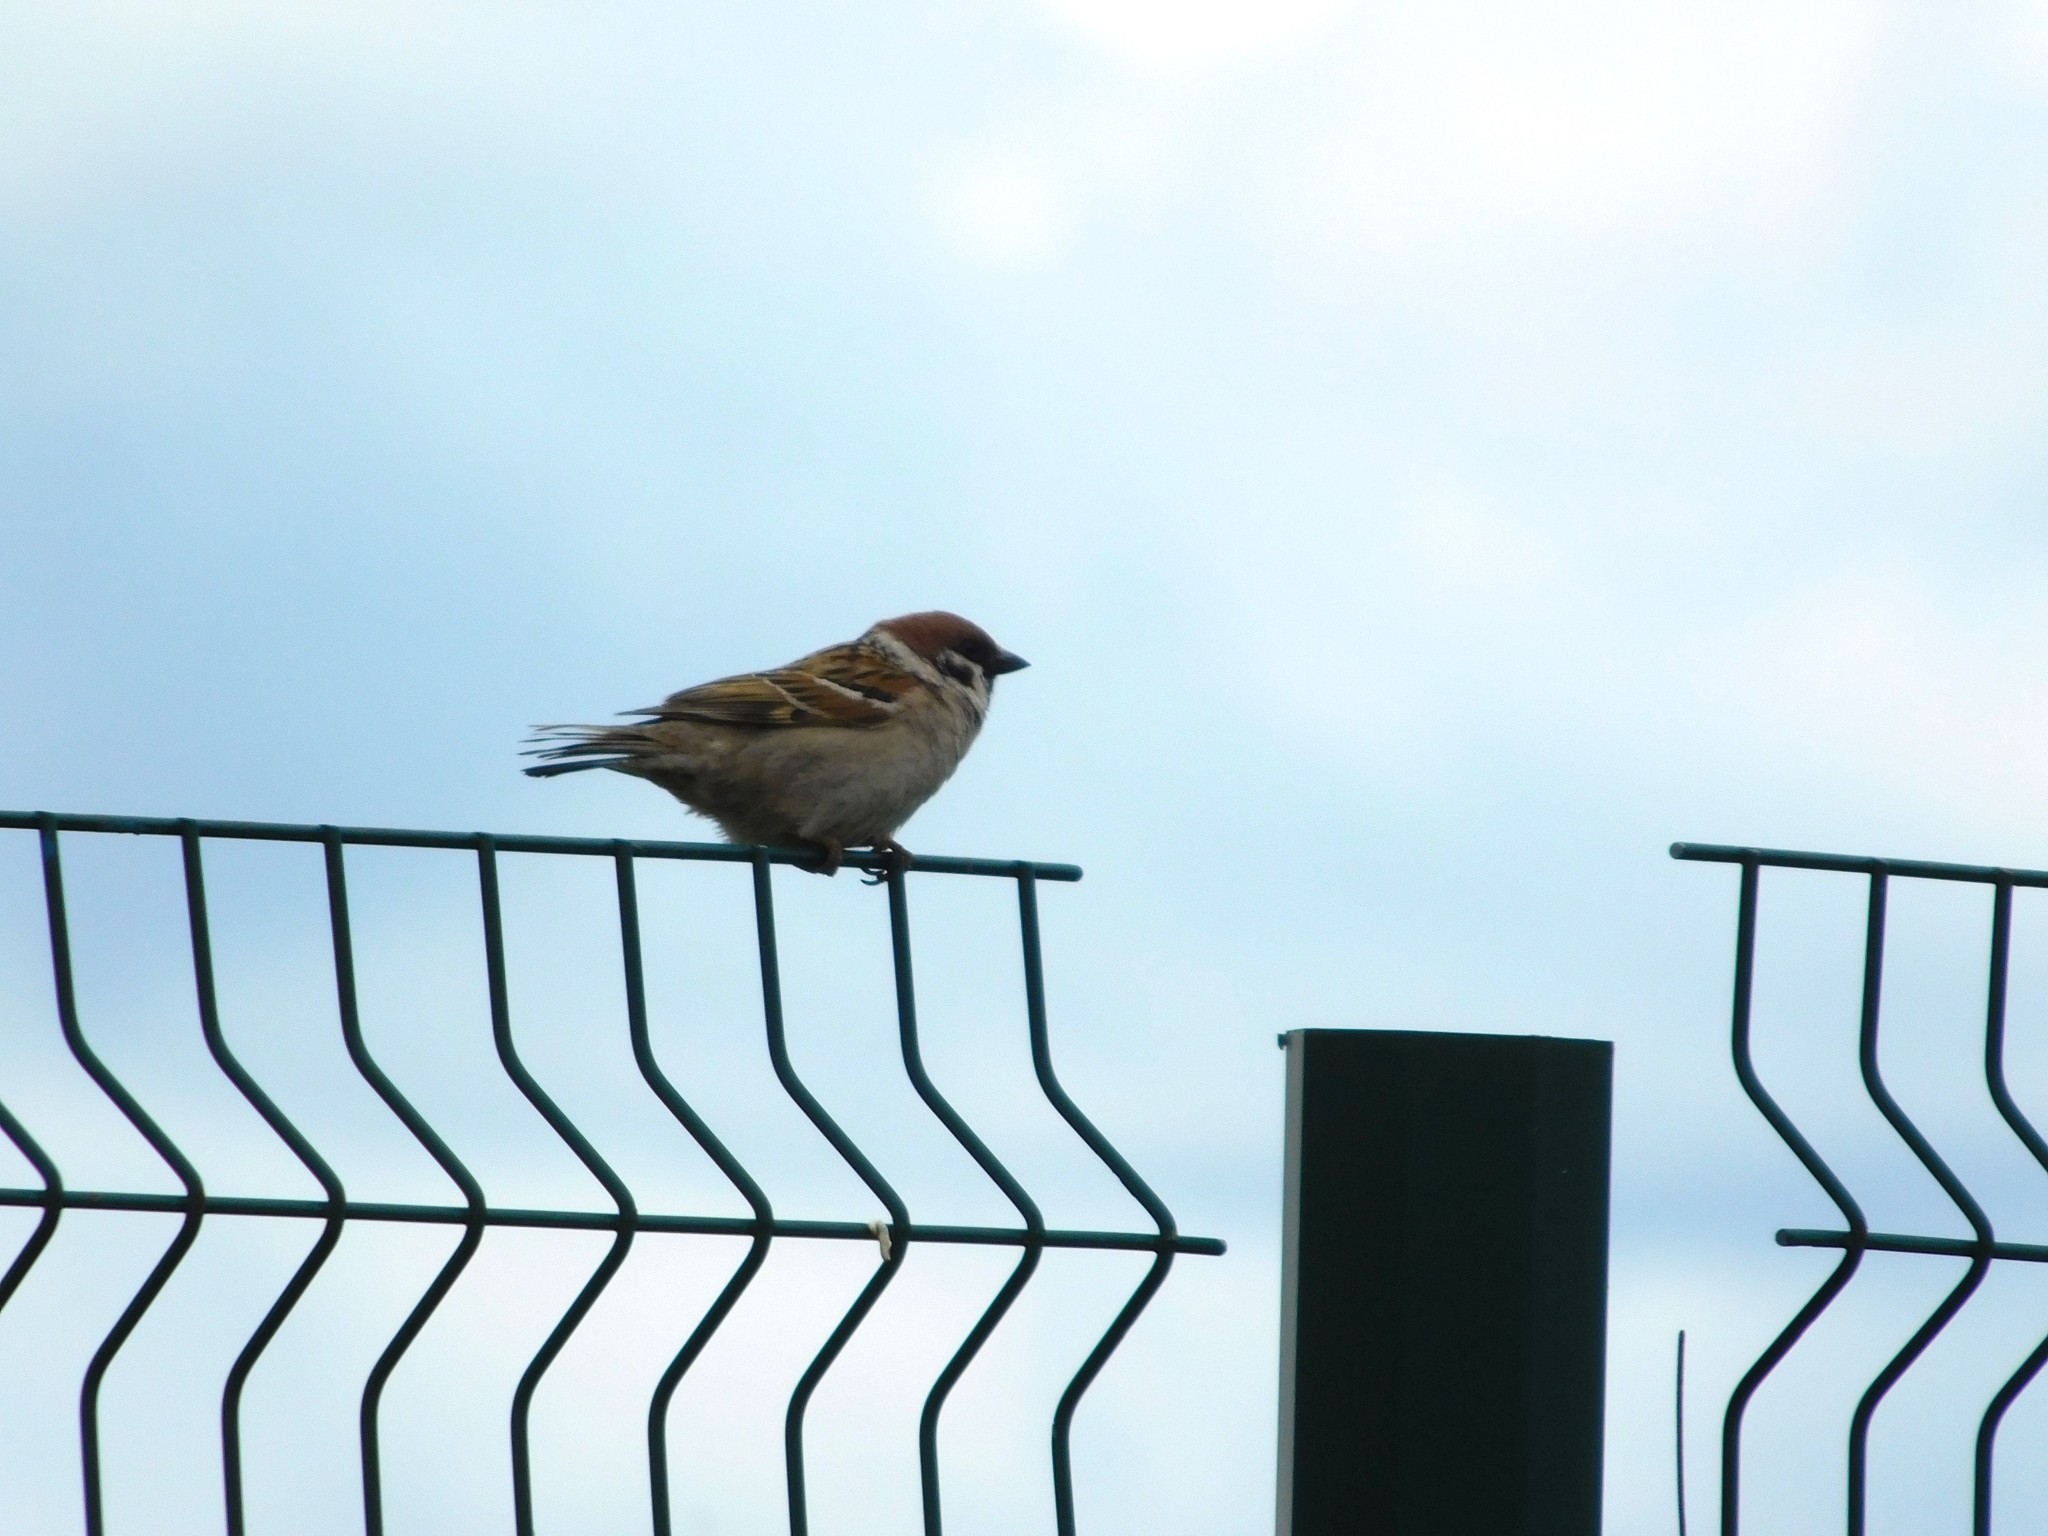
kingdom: Animalia
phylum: Chordata
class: Aves
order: Passeriformes
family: Passeridae
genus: Passer
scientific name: Passer montanus
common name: Eurasian tree sparrow
